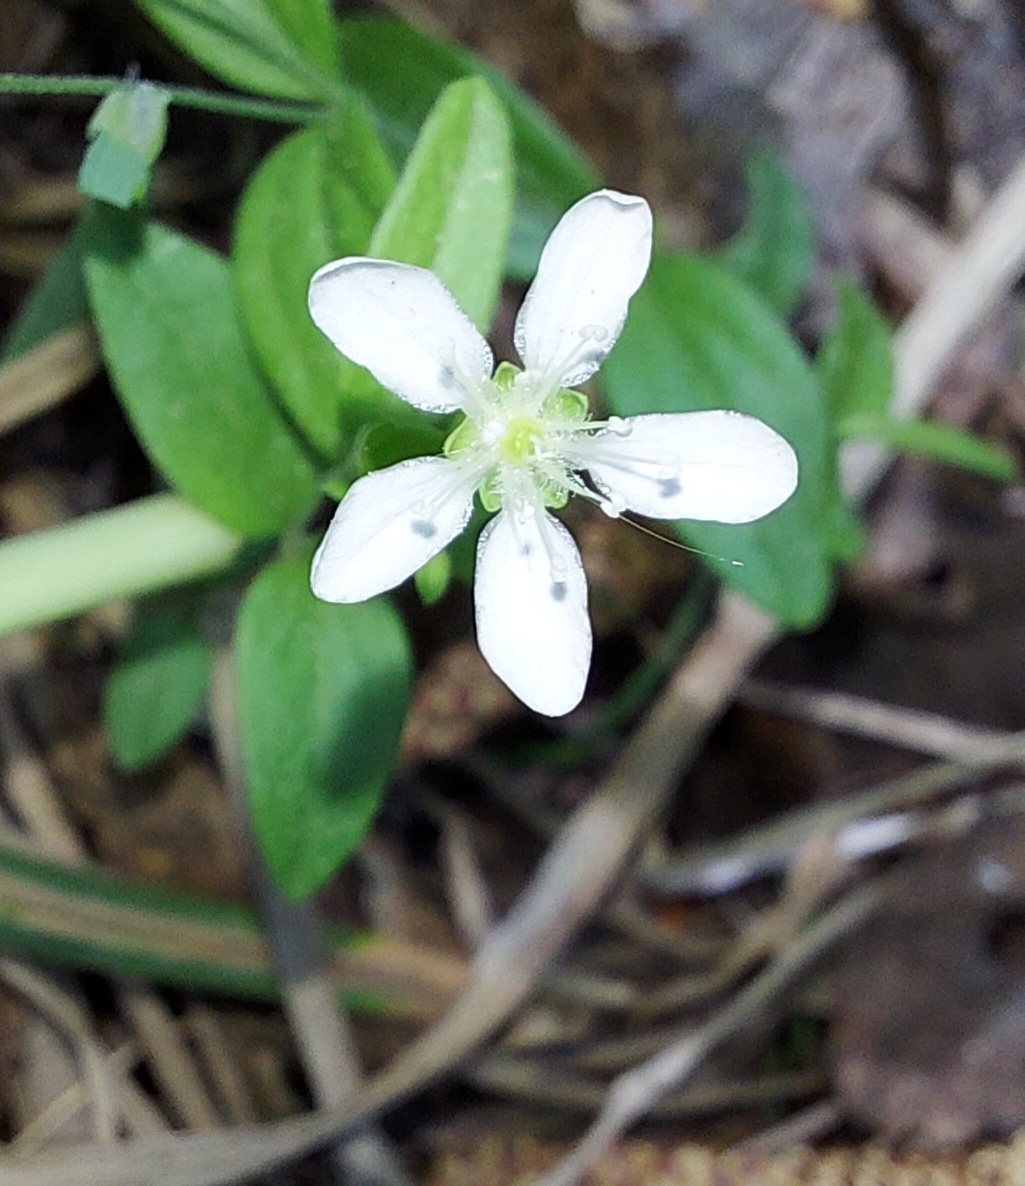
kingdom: Plantae
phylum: Tracheophyta
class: Magnoliopsida
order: Caryophyllales
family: Caryophyllaceae
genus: Moehringia
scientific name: Moehringia lateriflora
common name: Blunt-leaved sandwort
